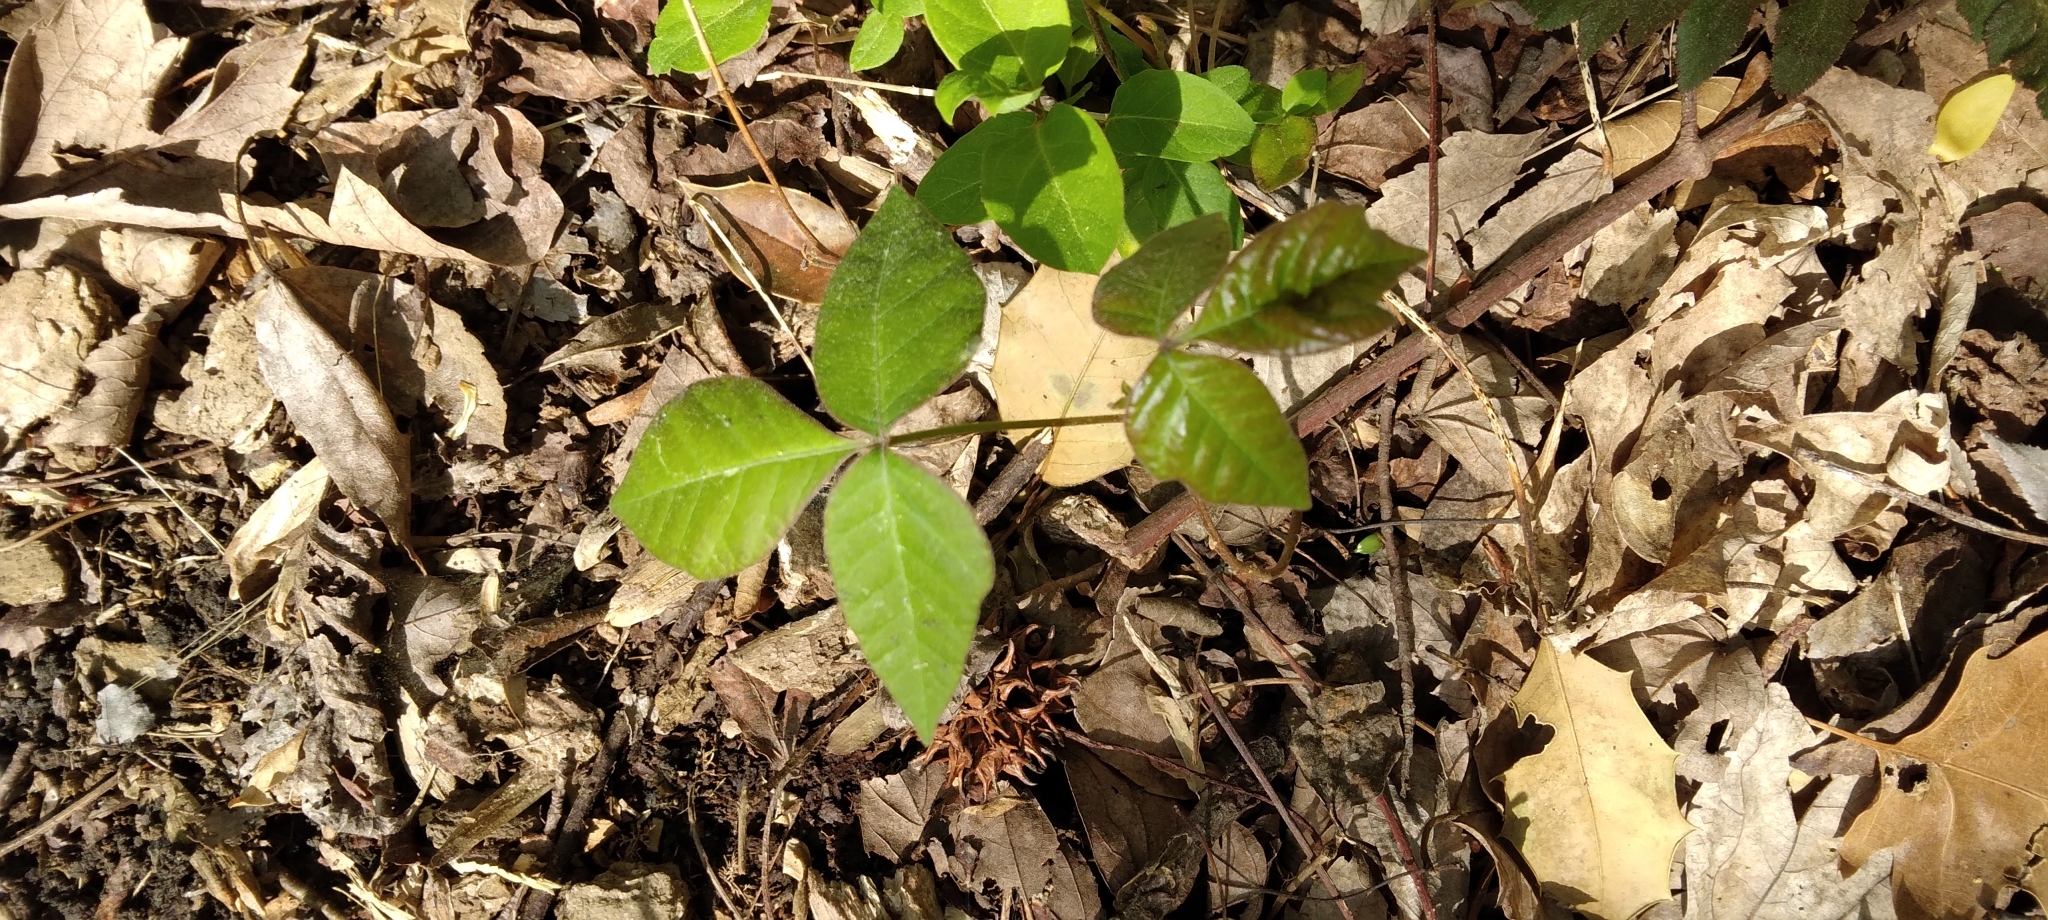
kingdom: Plantae
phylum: Tracheophyta
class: Magnoliopsida
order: Sapindales
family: Anacardiaceae
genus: Toxicodendron
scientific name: Toxicodendron radicans
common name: Poison ivy
